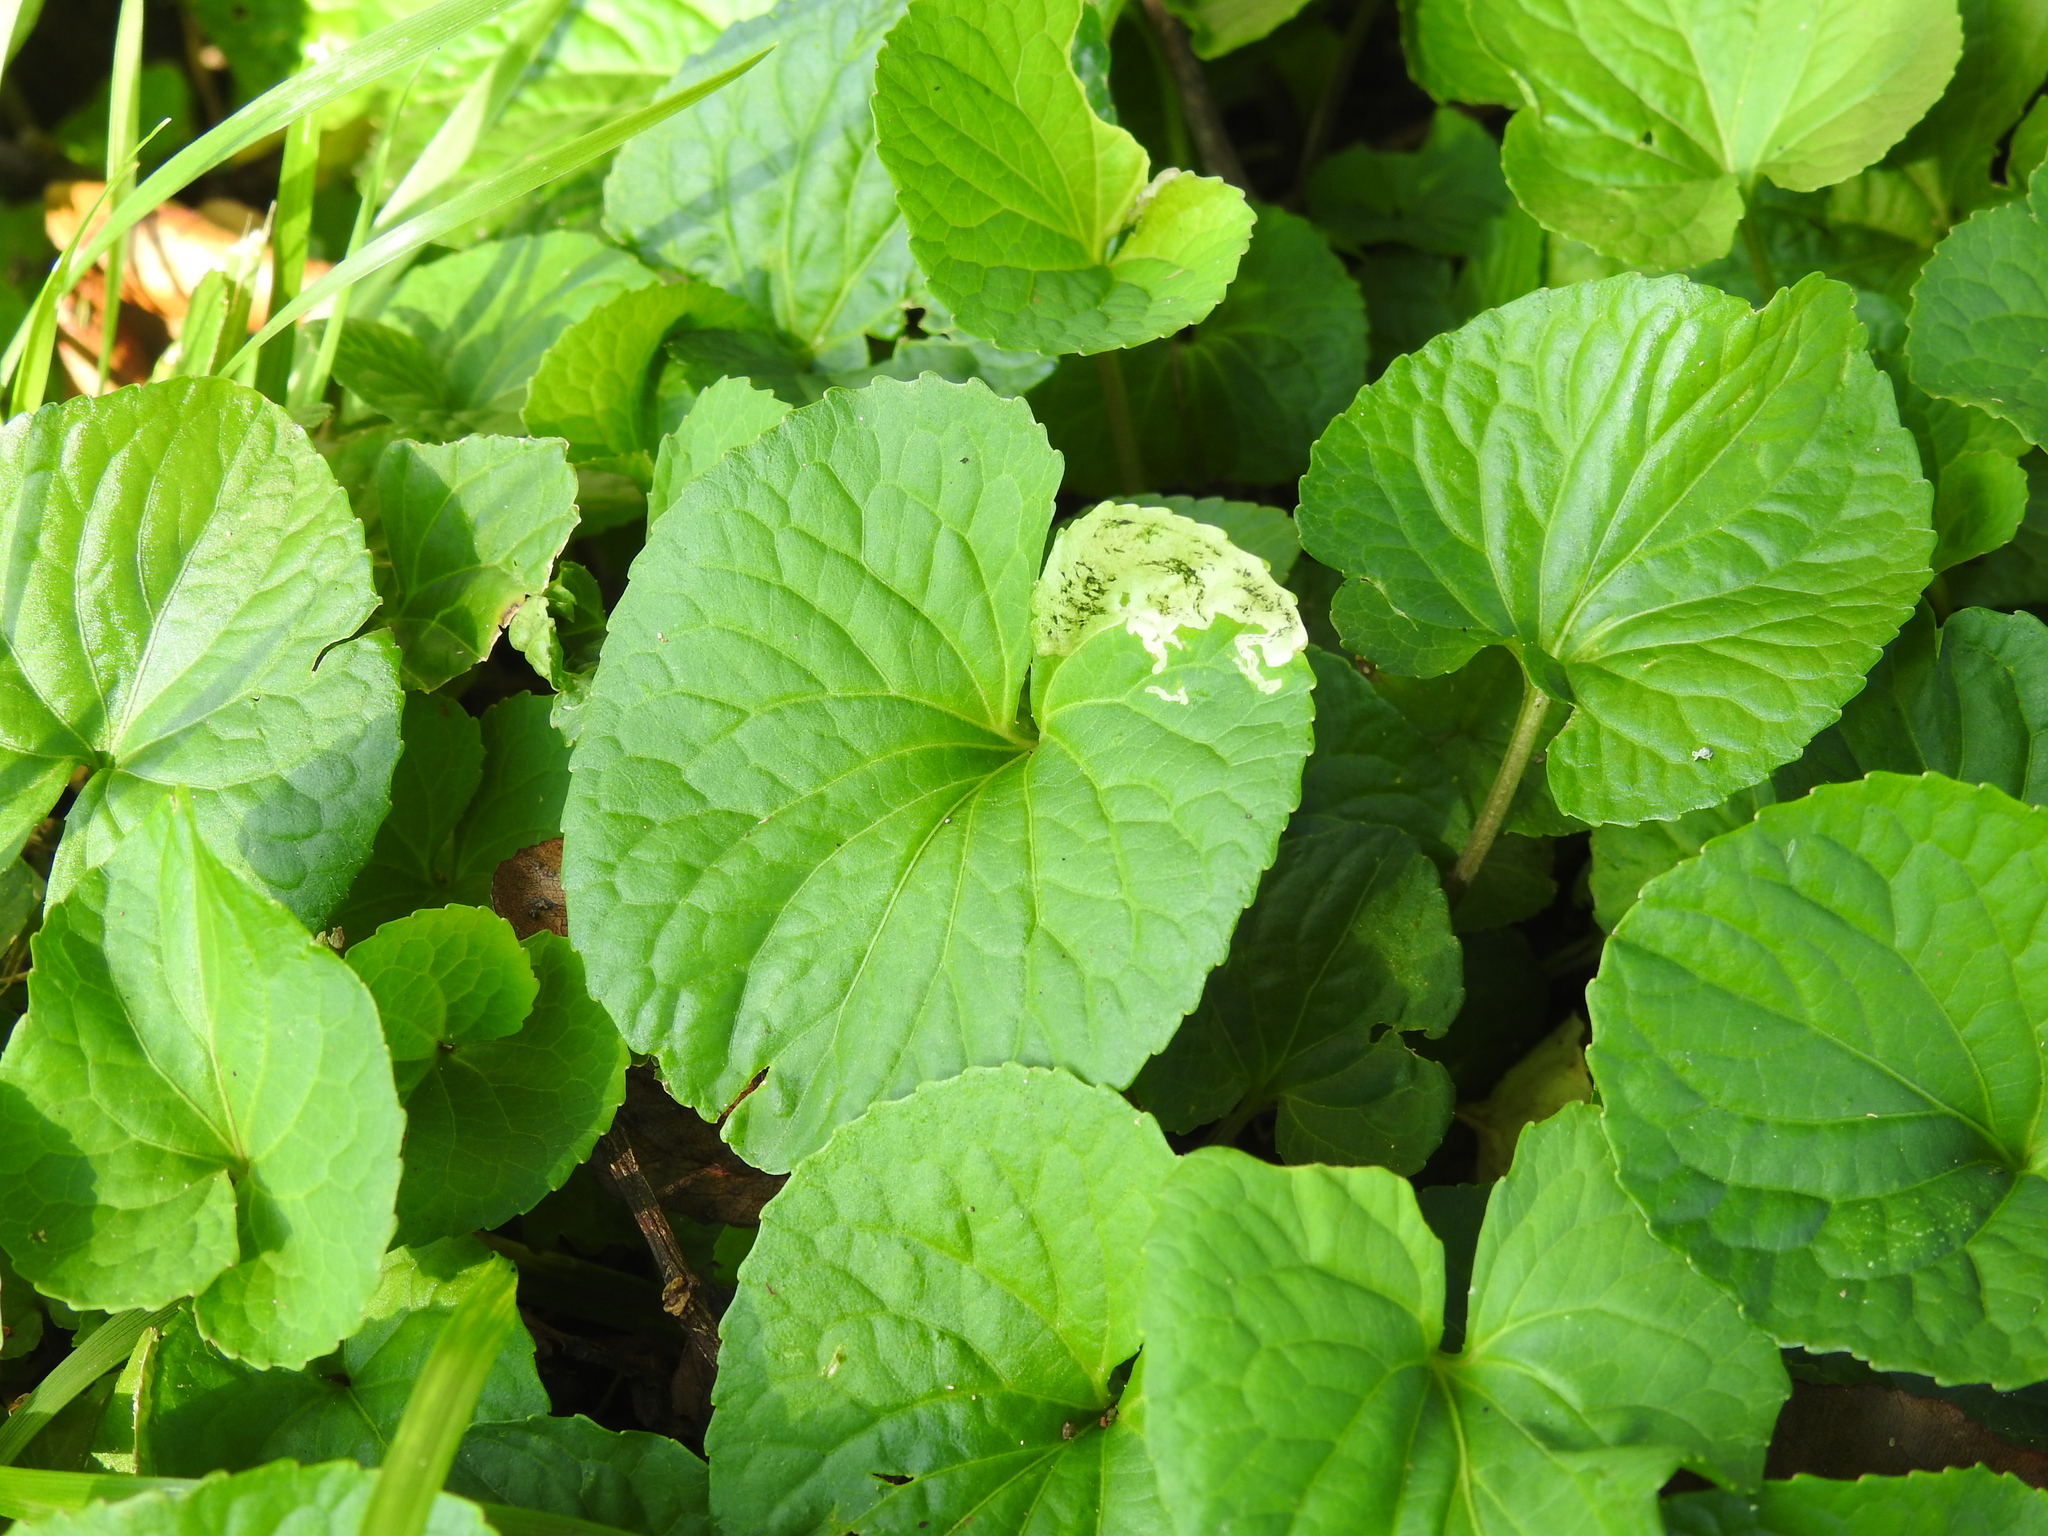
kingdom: Animalia
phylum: Arthropoda
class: Insecta
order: Diptera
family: Agromyzidae
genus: Liriomyza
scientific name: Liriomyza violivora
